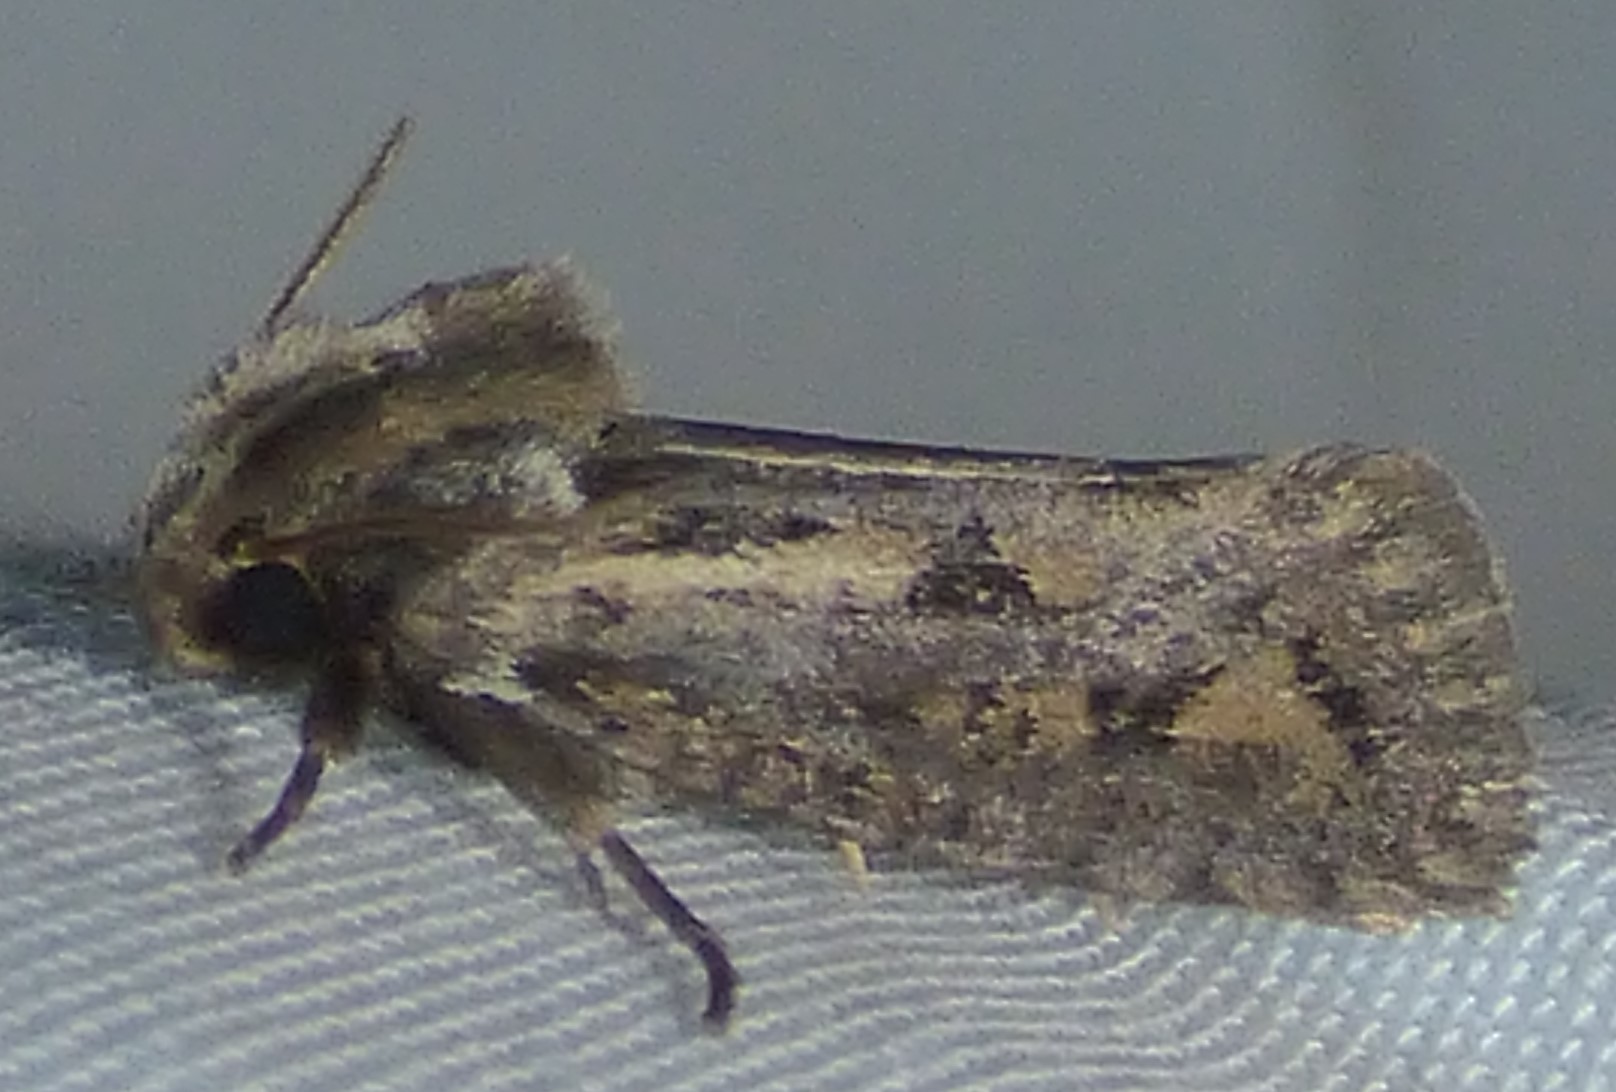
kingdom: Animalia
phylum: Arthropoda
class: Insecta
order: Lepidoptera
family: Tineidae
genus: Acrolophus
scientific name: Acrolophus popeanella
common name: Clemens' grass tubeworm moth
